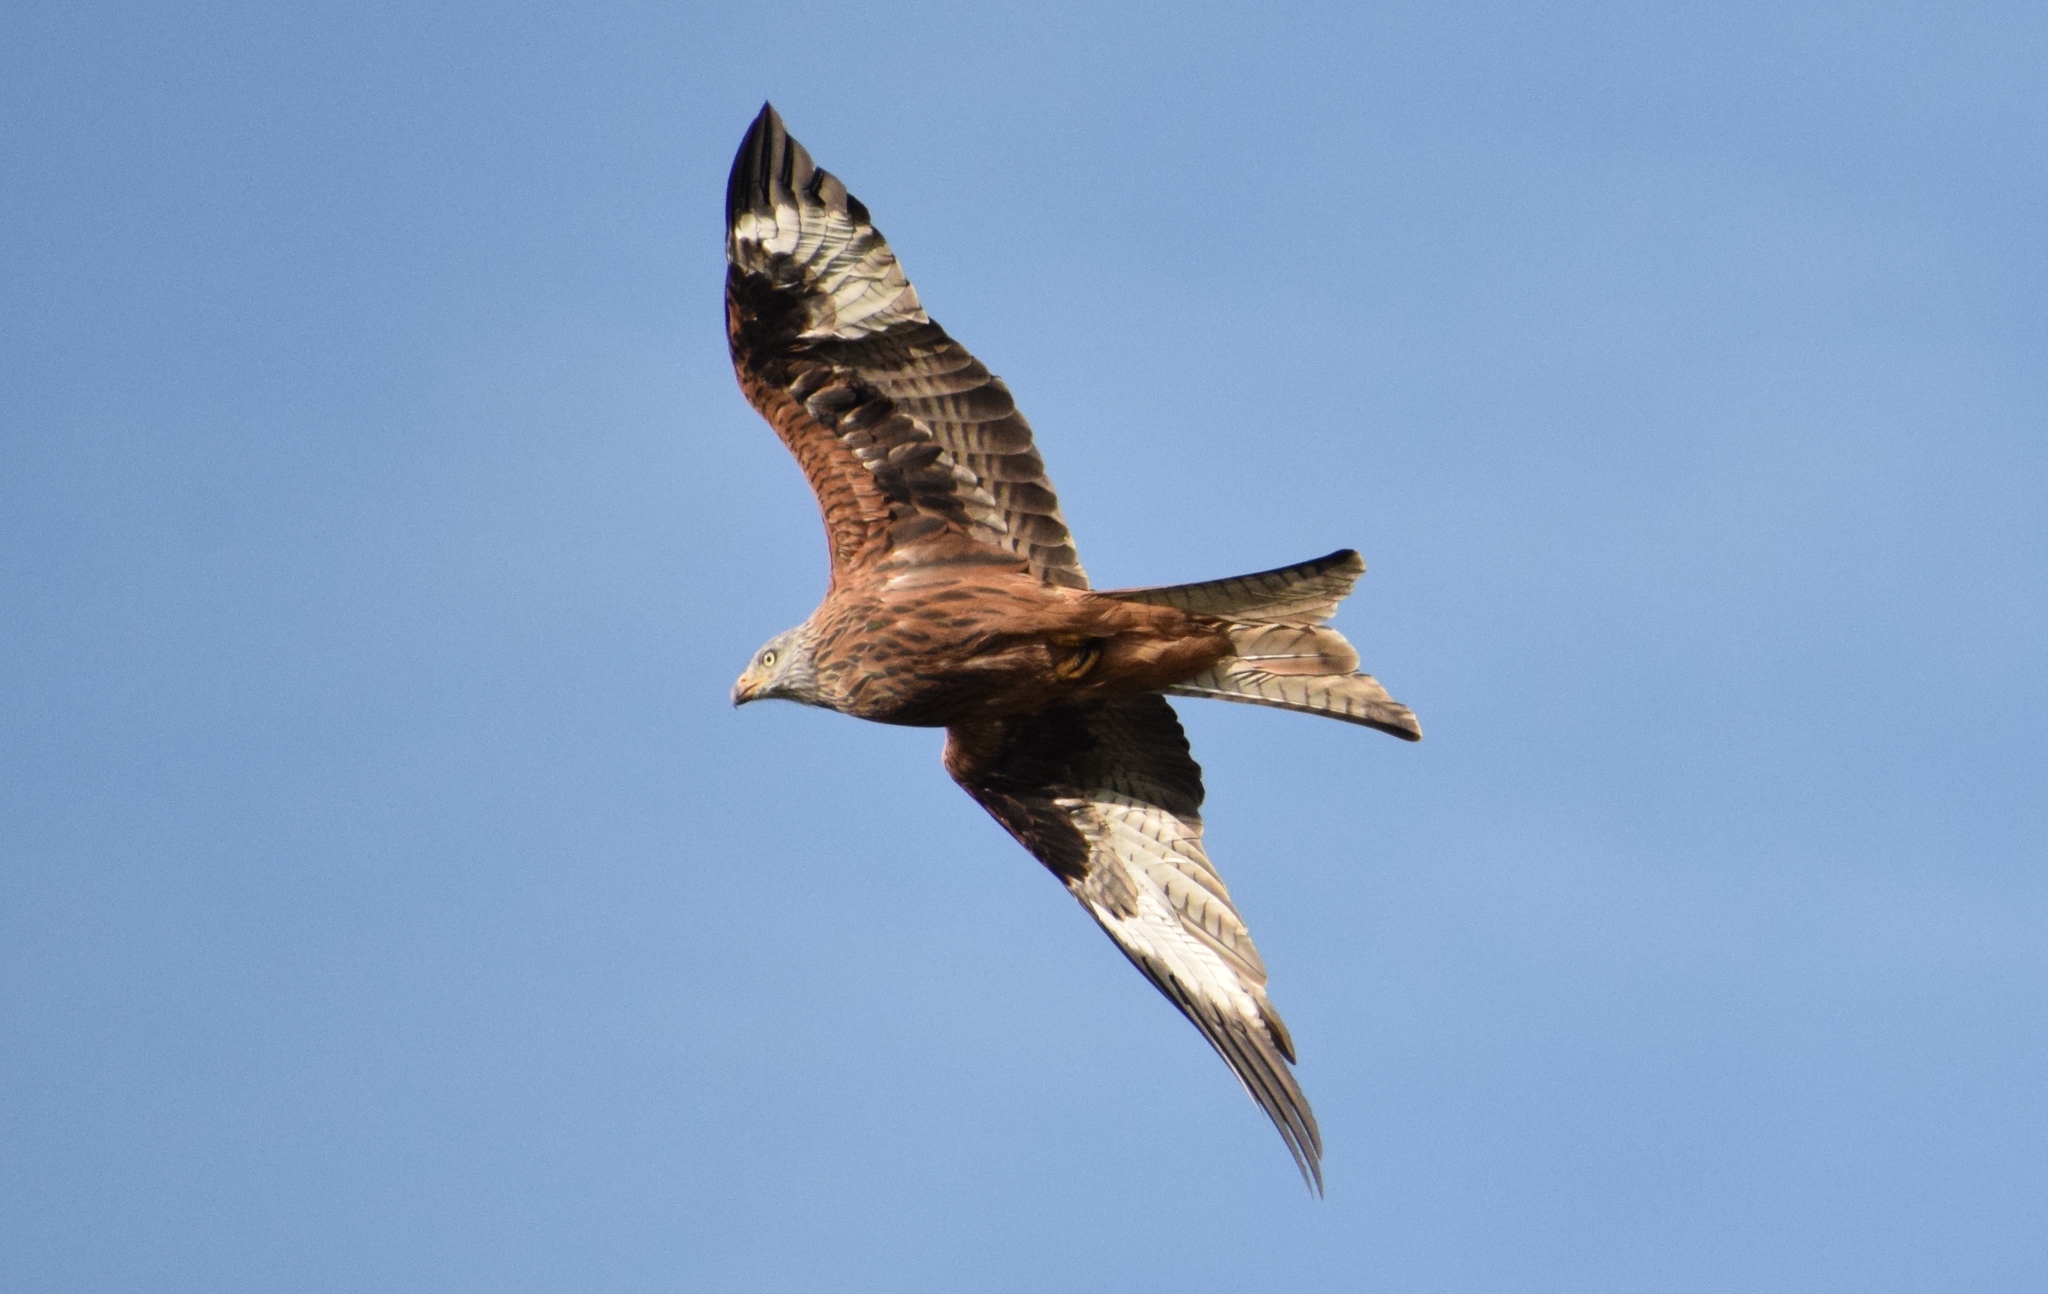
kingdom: Animalia
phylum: Chordata
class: Aves
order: Accipitriformes
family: Accipitridae
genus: Milvus
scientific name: Milvus milvus
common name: Red kite
